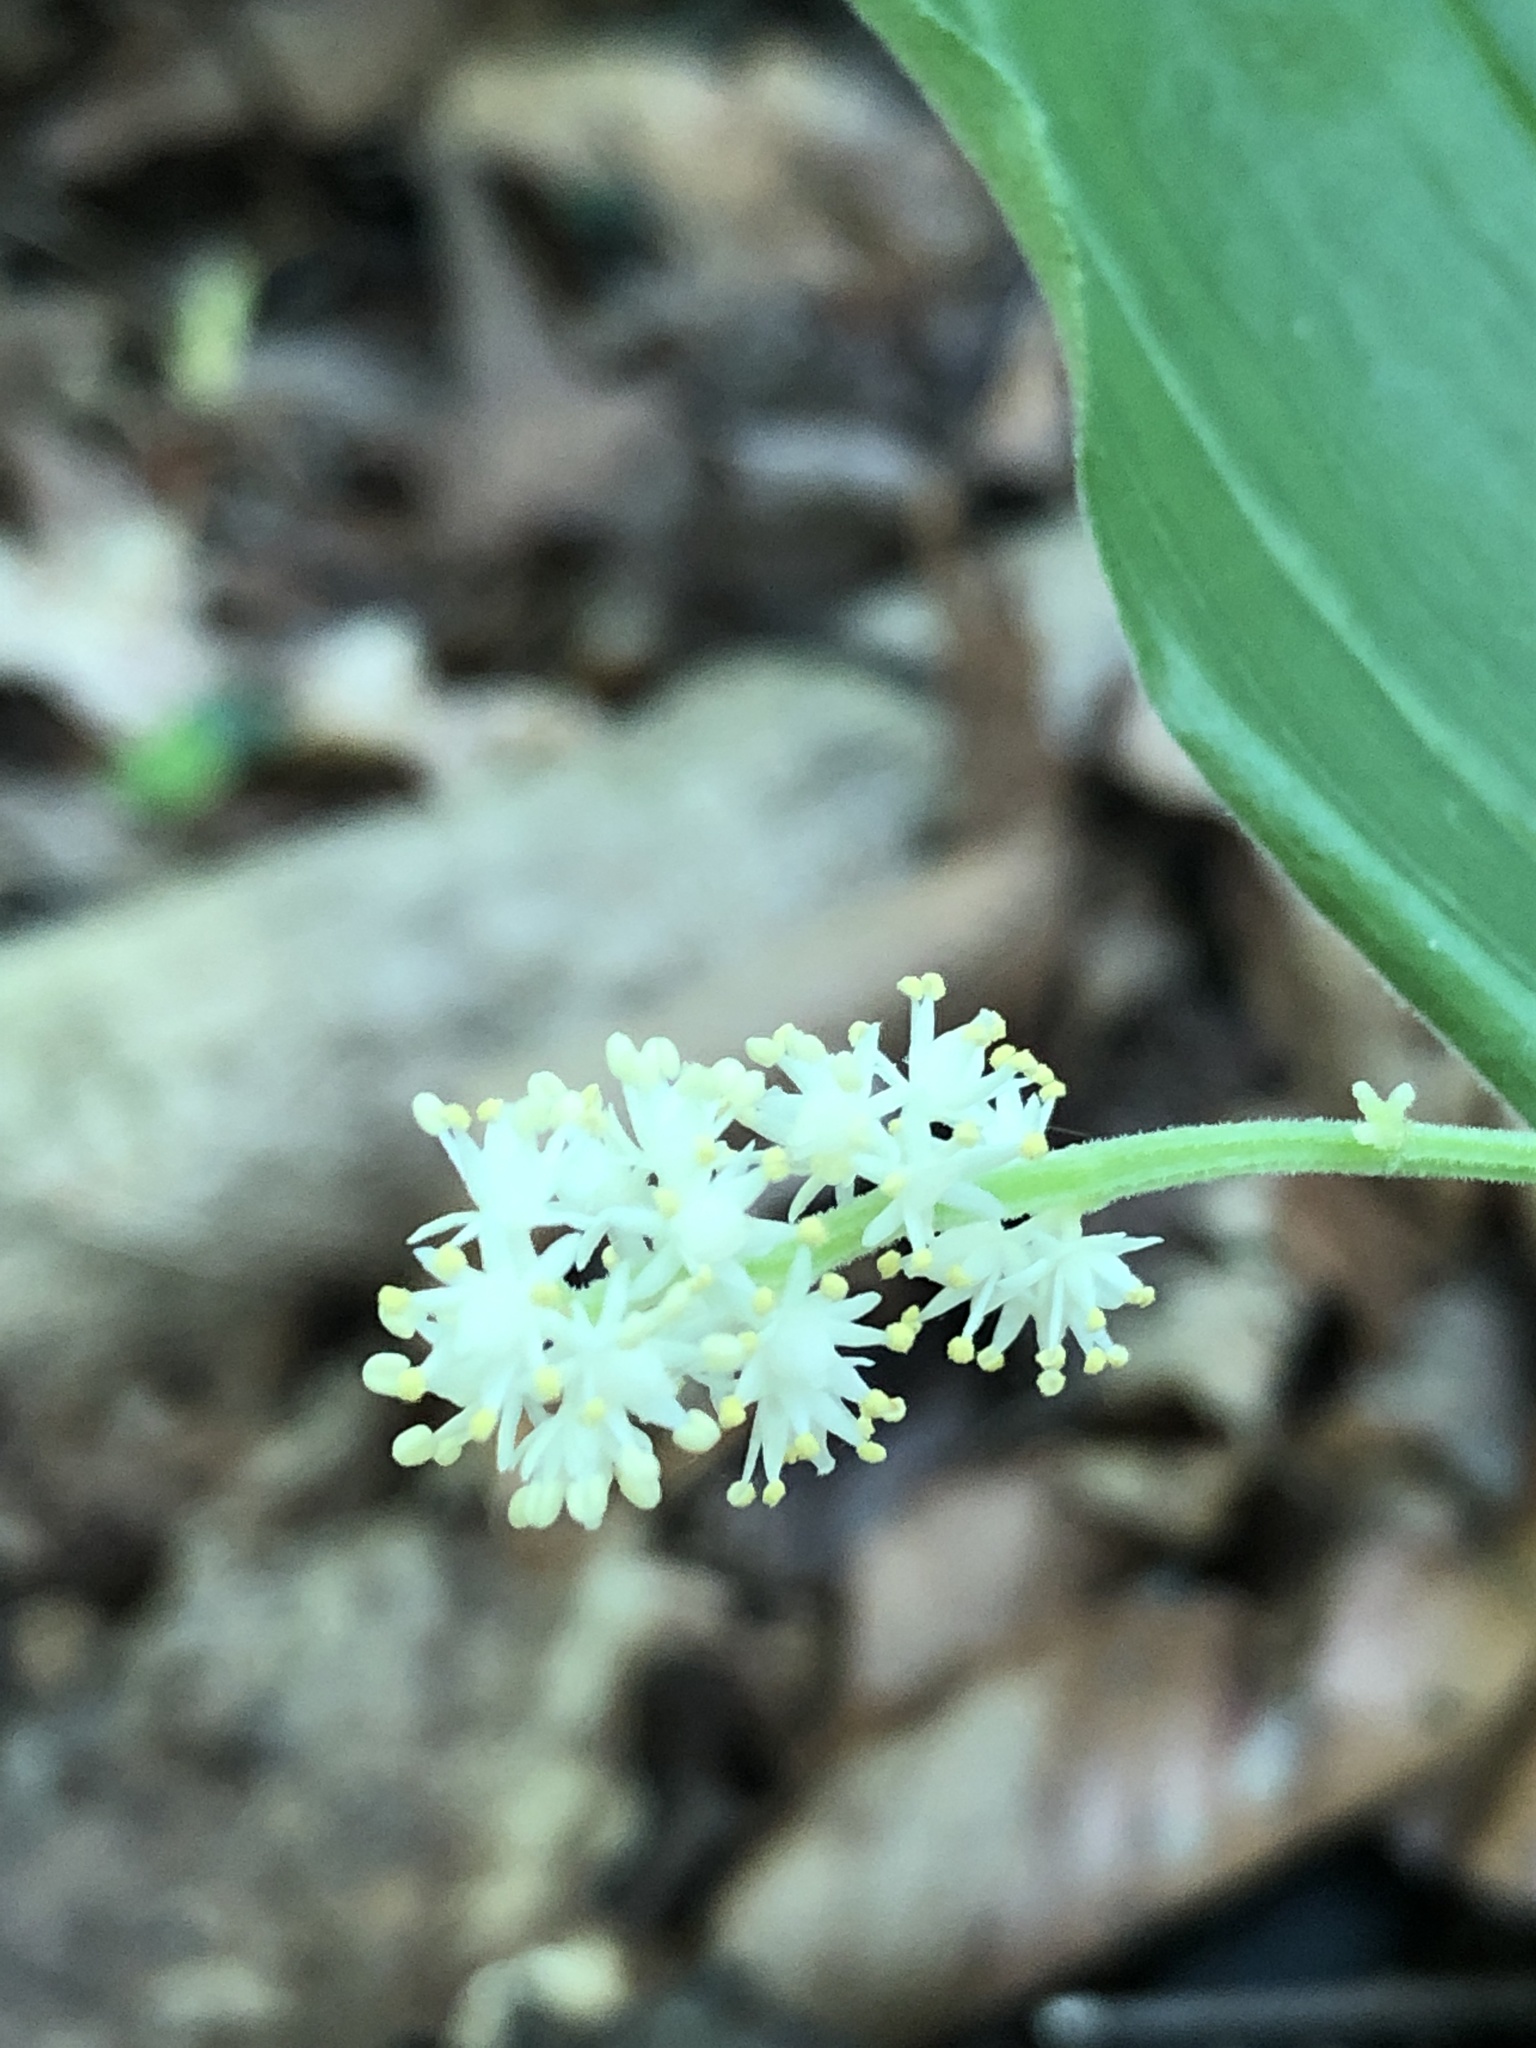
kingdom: Plantae
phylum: Tracheophyta
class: Liliopsida
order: Asparagales
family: Asparagaceae
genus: Maianthemum
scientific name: Maianthemum racemosum
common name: False spikenard
